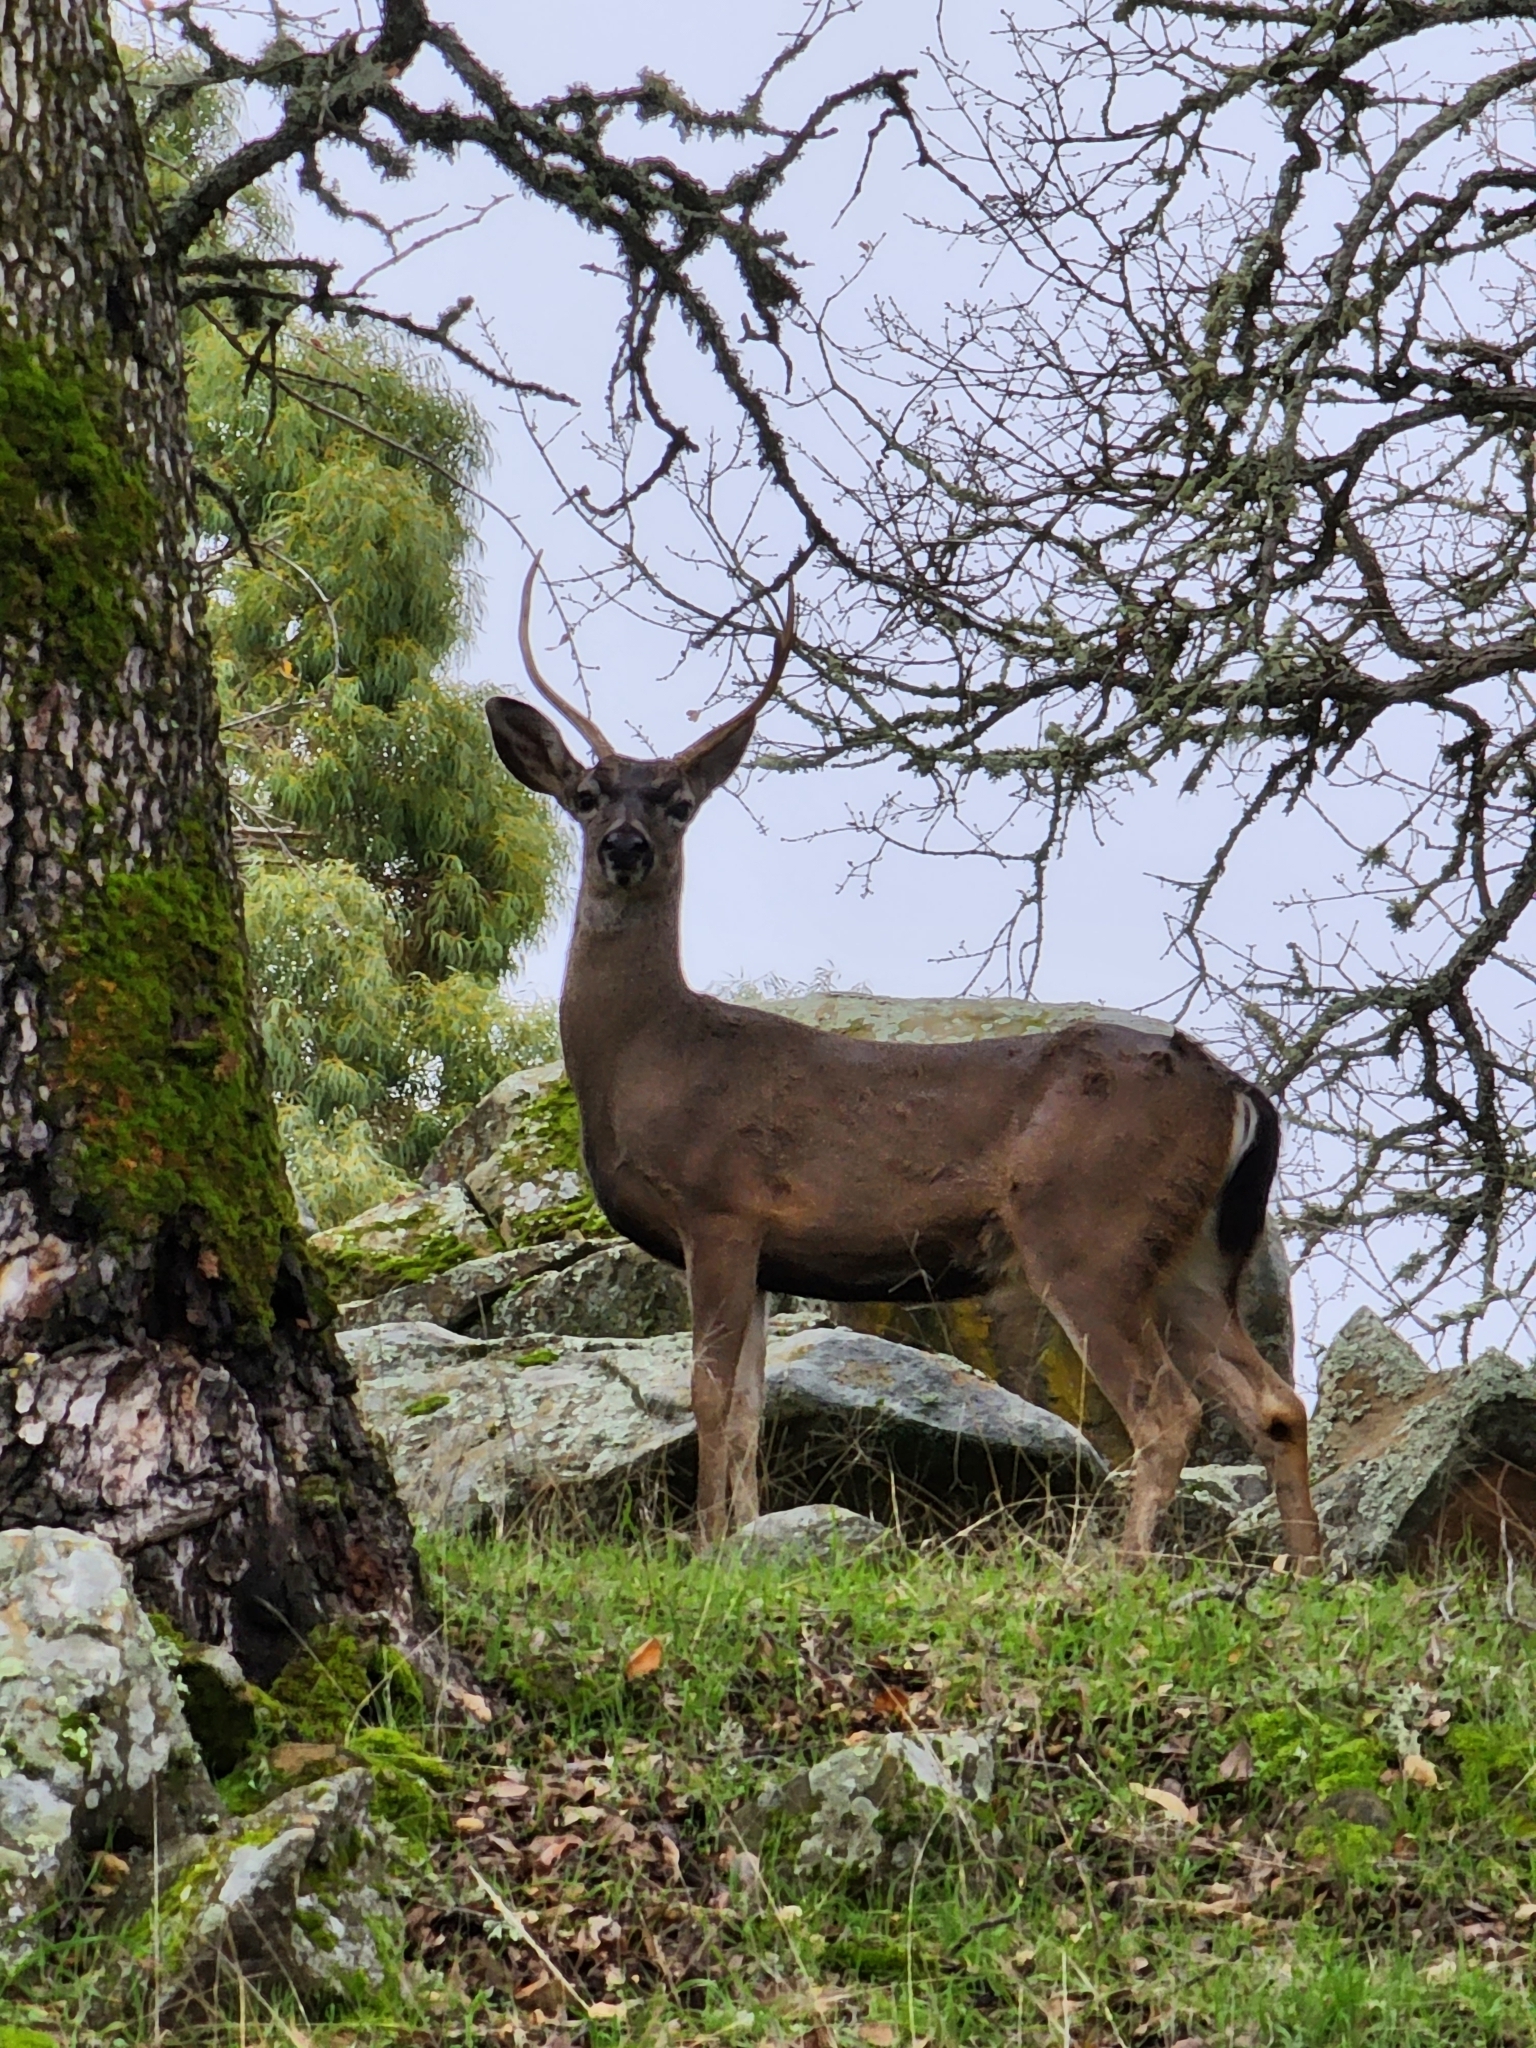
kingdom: Animalia
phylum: Chordata
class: Mammalia
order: Artiodactyla
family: Cervidae
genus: Odocoileus
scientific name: Odocoileus hemionus
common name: Mule deer
